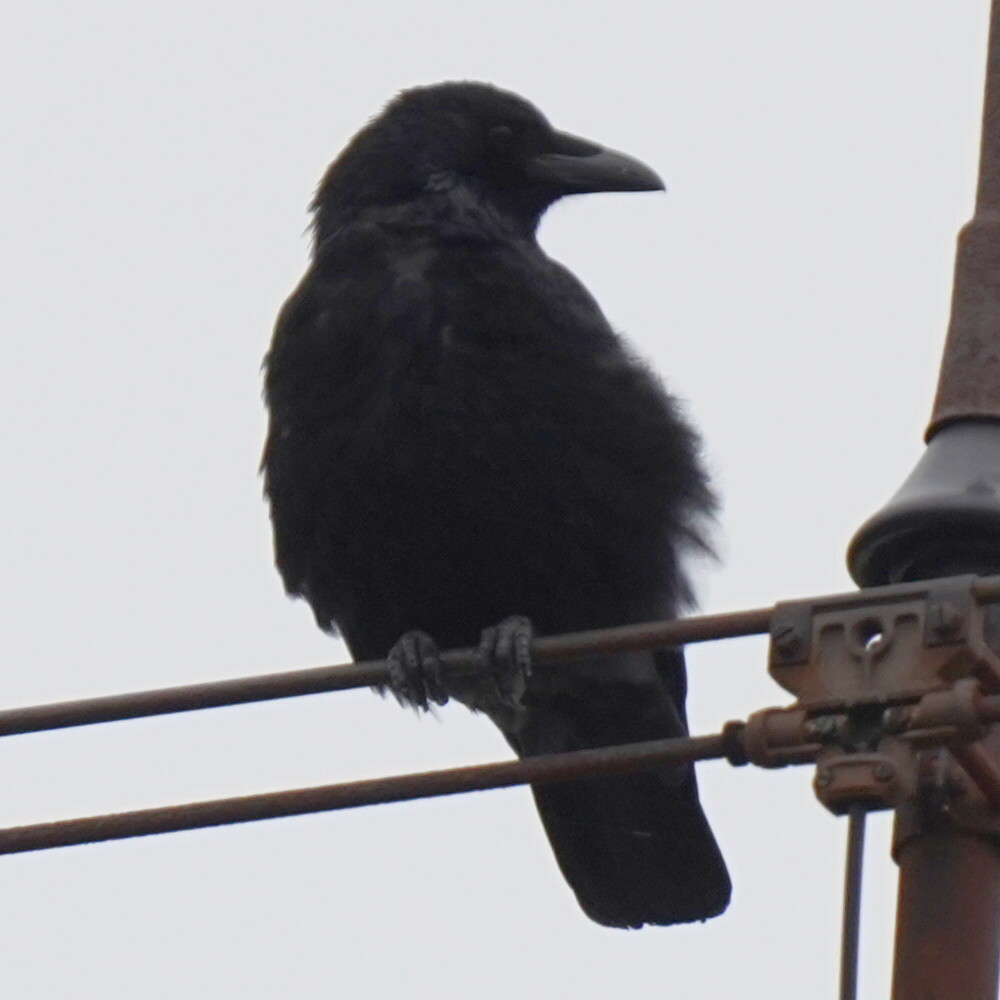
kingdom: Animalia
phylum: Chordata
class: Aves
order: Passeriformes
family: Corvidae
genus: Corvus
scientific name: Corvus corone
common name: Carrion crow
